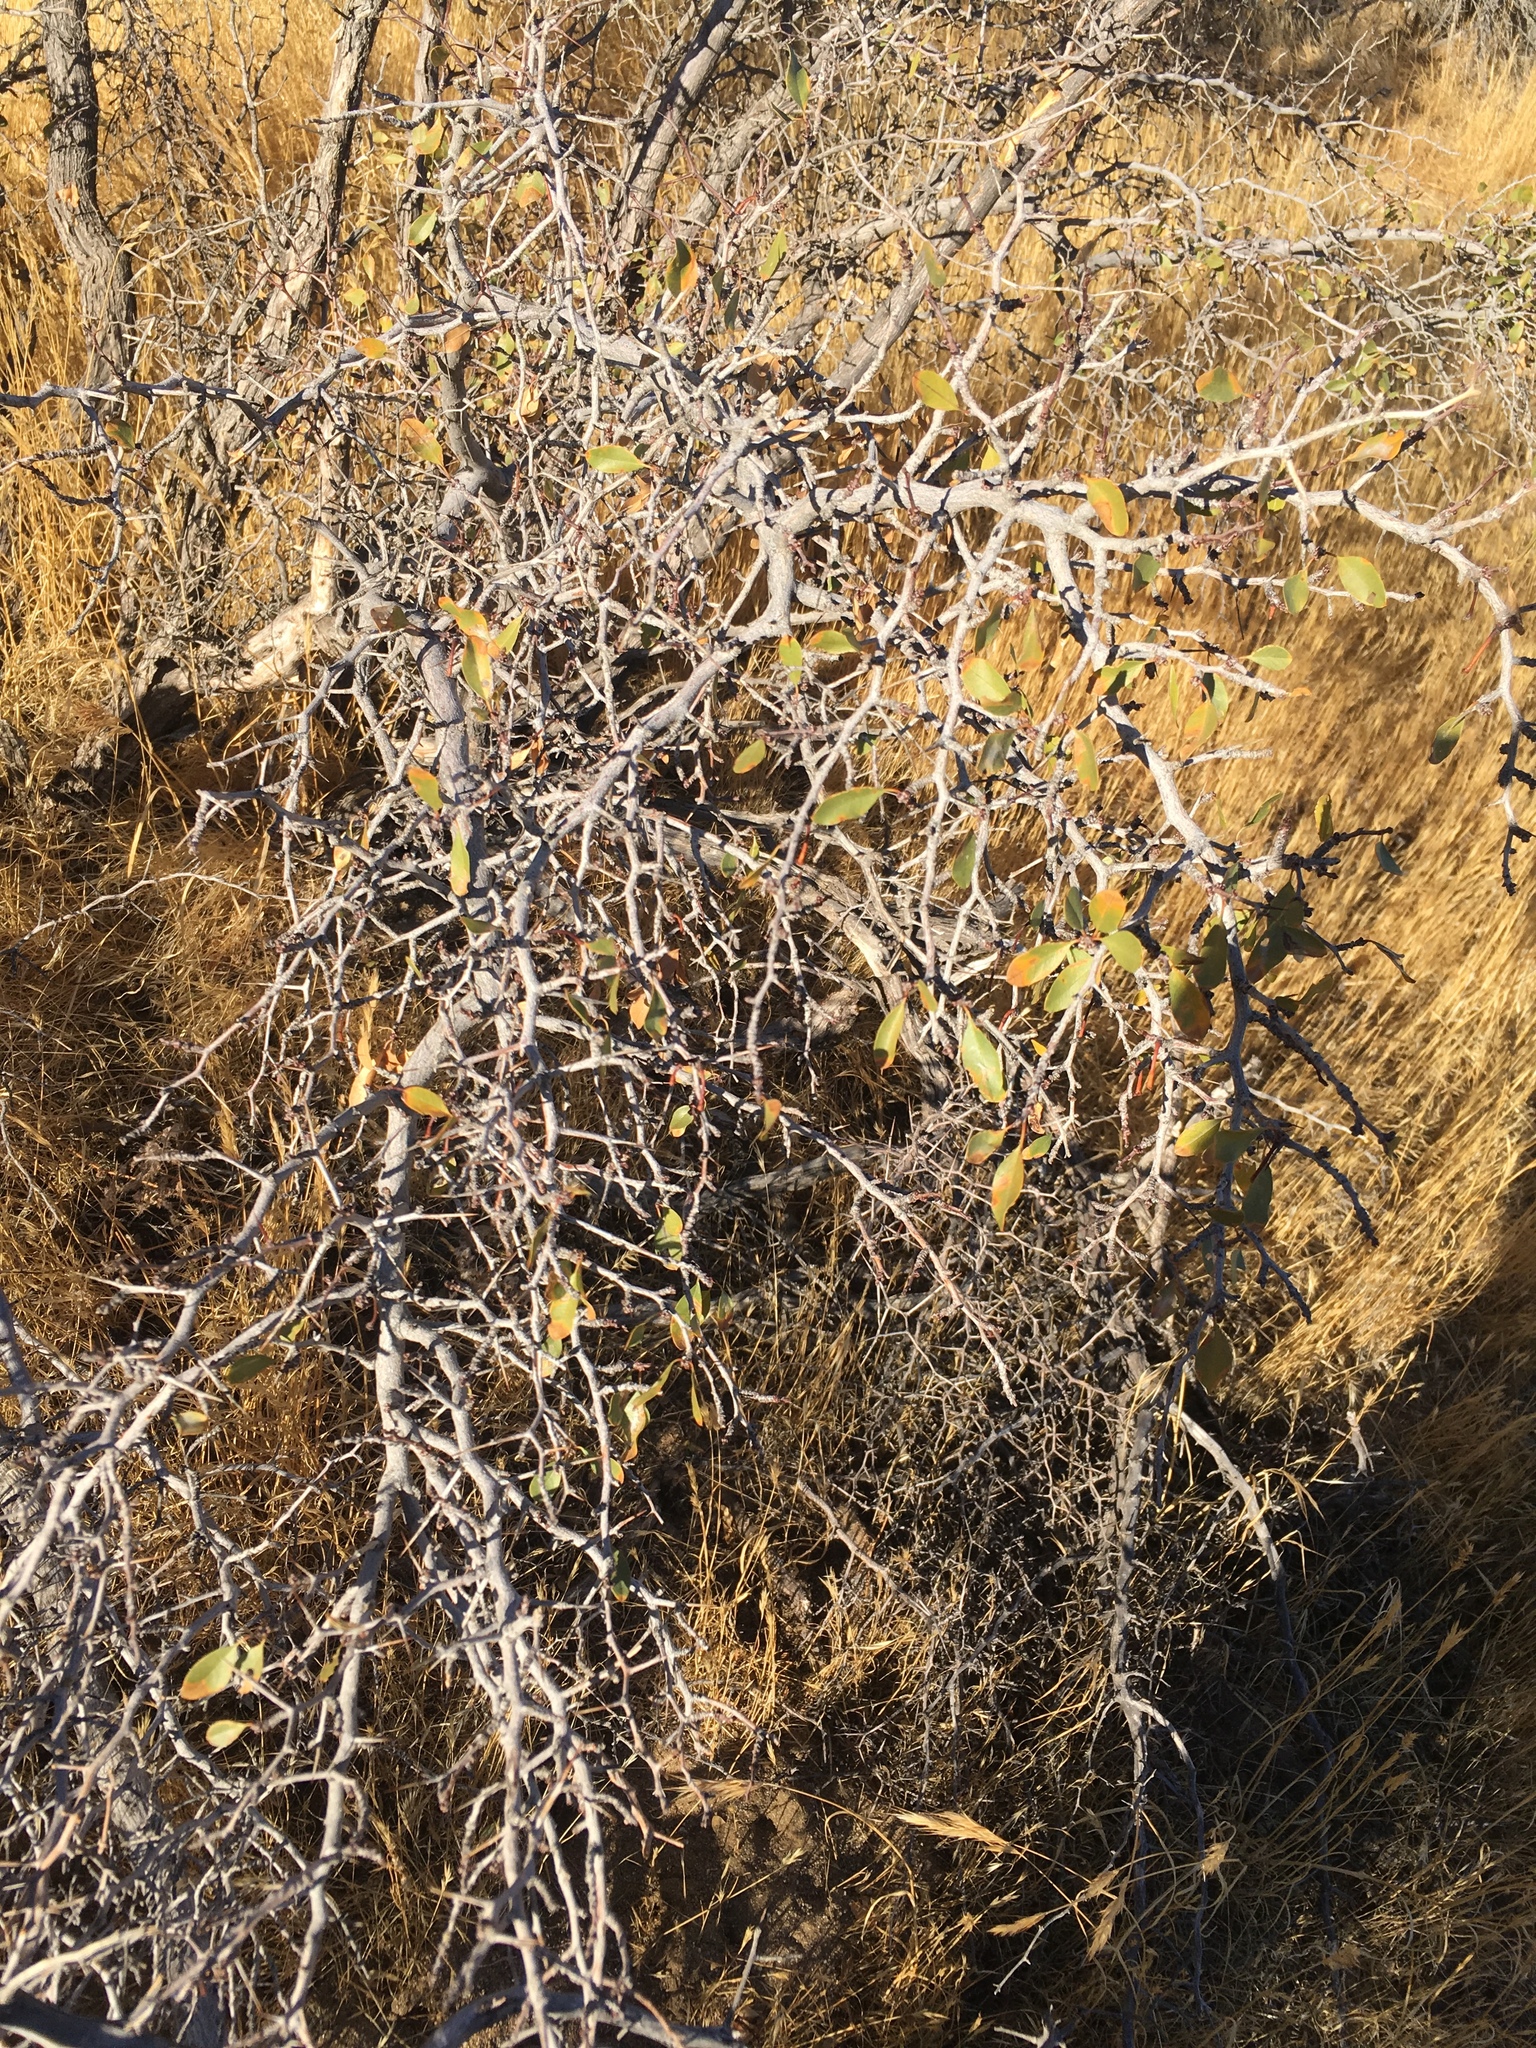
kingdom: Plantae
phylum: Tracheophyta
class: Magnoliopsida
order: Rosales
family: Rhamnaceae
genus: Pseudoziziphus
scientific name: Pseudoziziphus parryi
